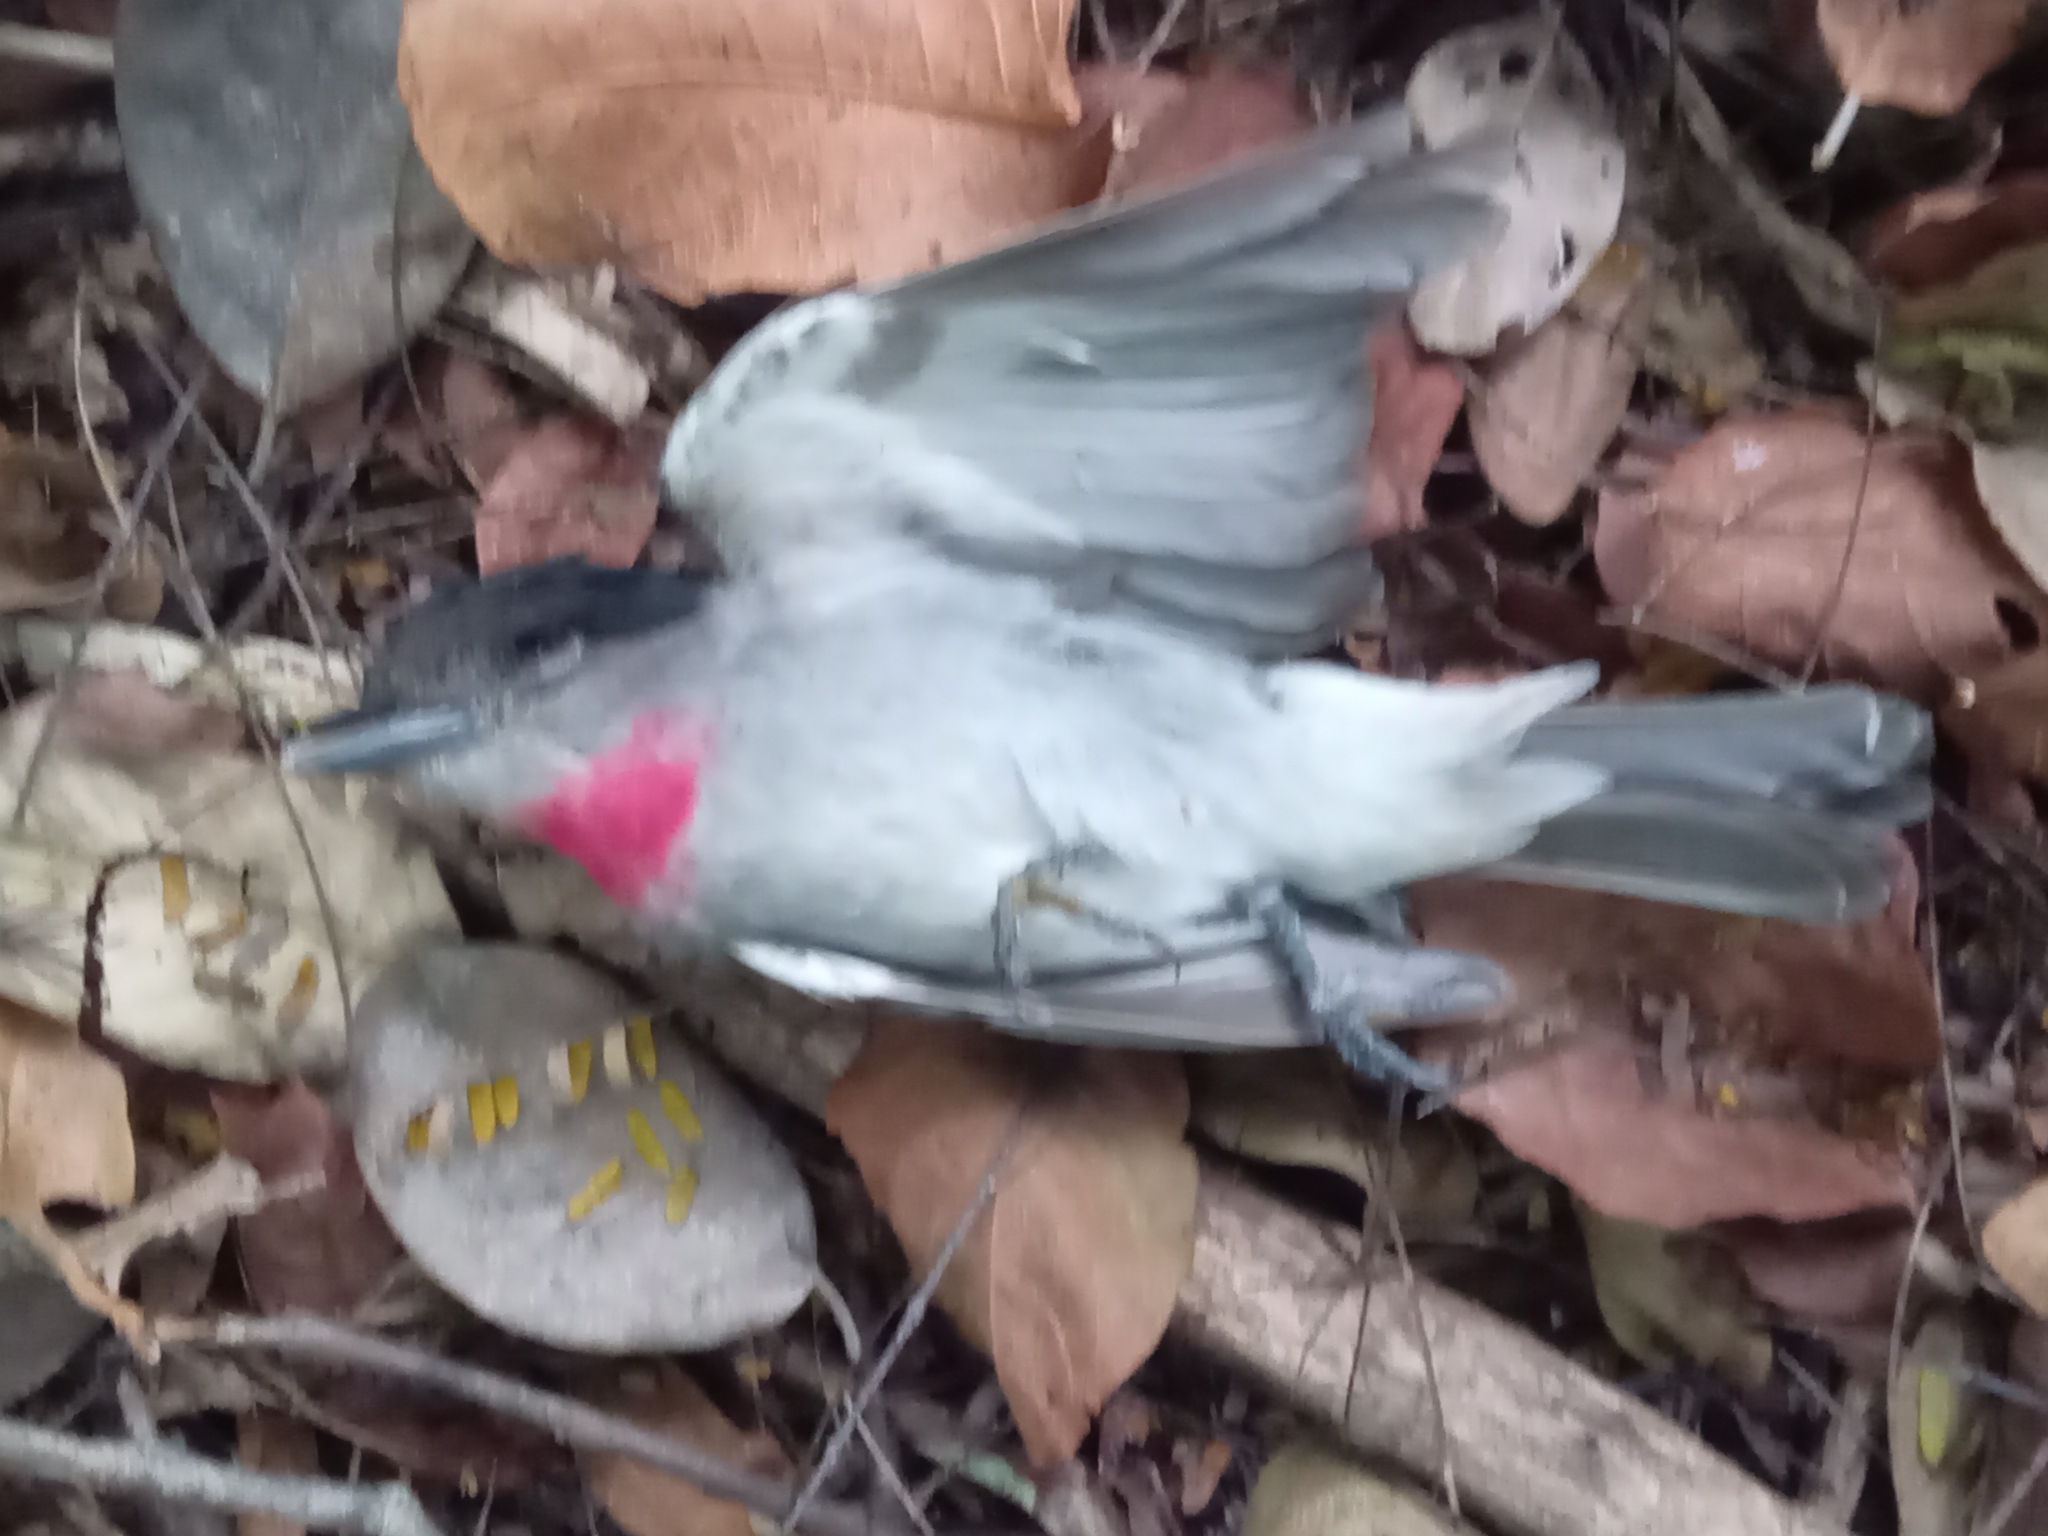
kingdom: Animalia
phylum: Chordata
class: Aves
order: Passeriformes
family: Cotingidae
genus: Pachyramphus
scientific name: Pachyramphus aglaiae
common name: Rose-throated becard
